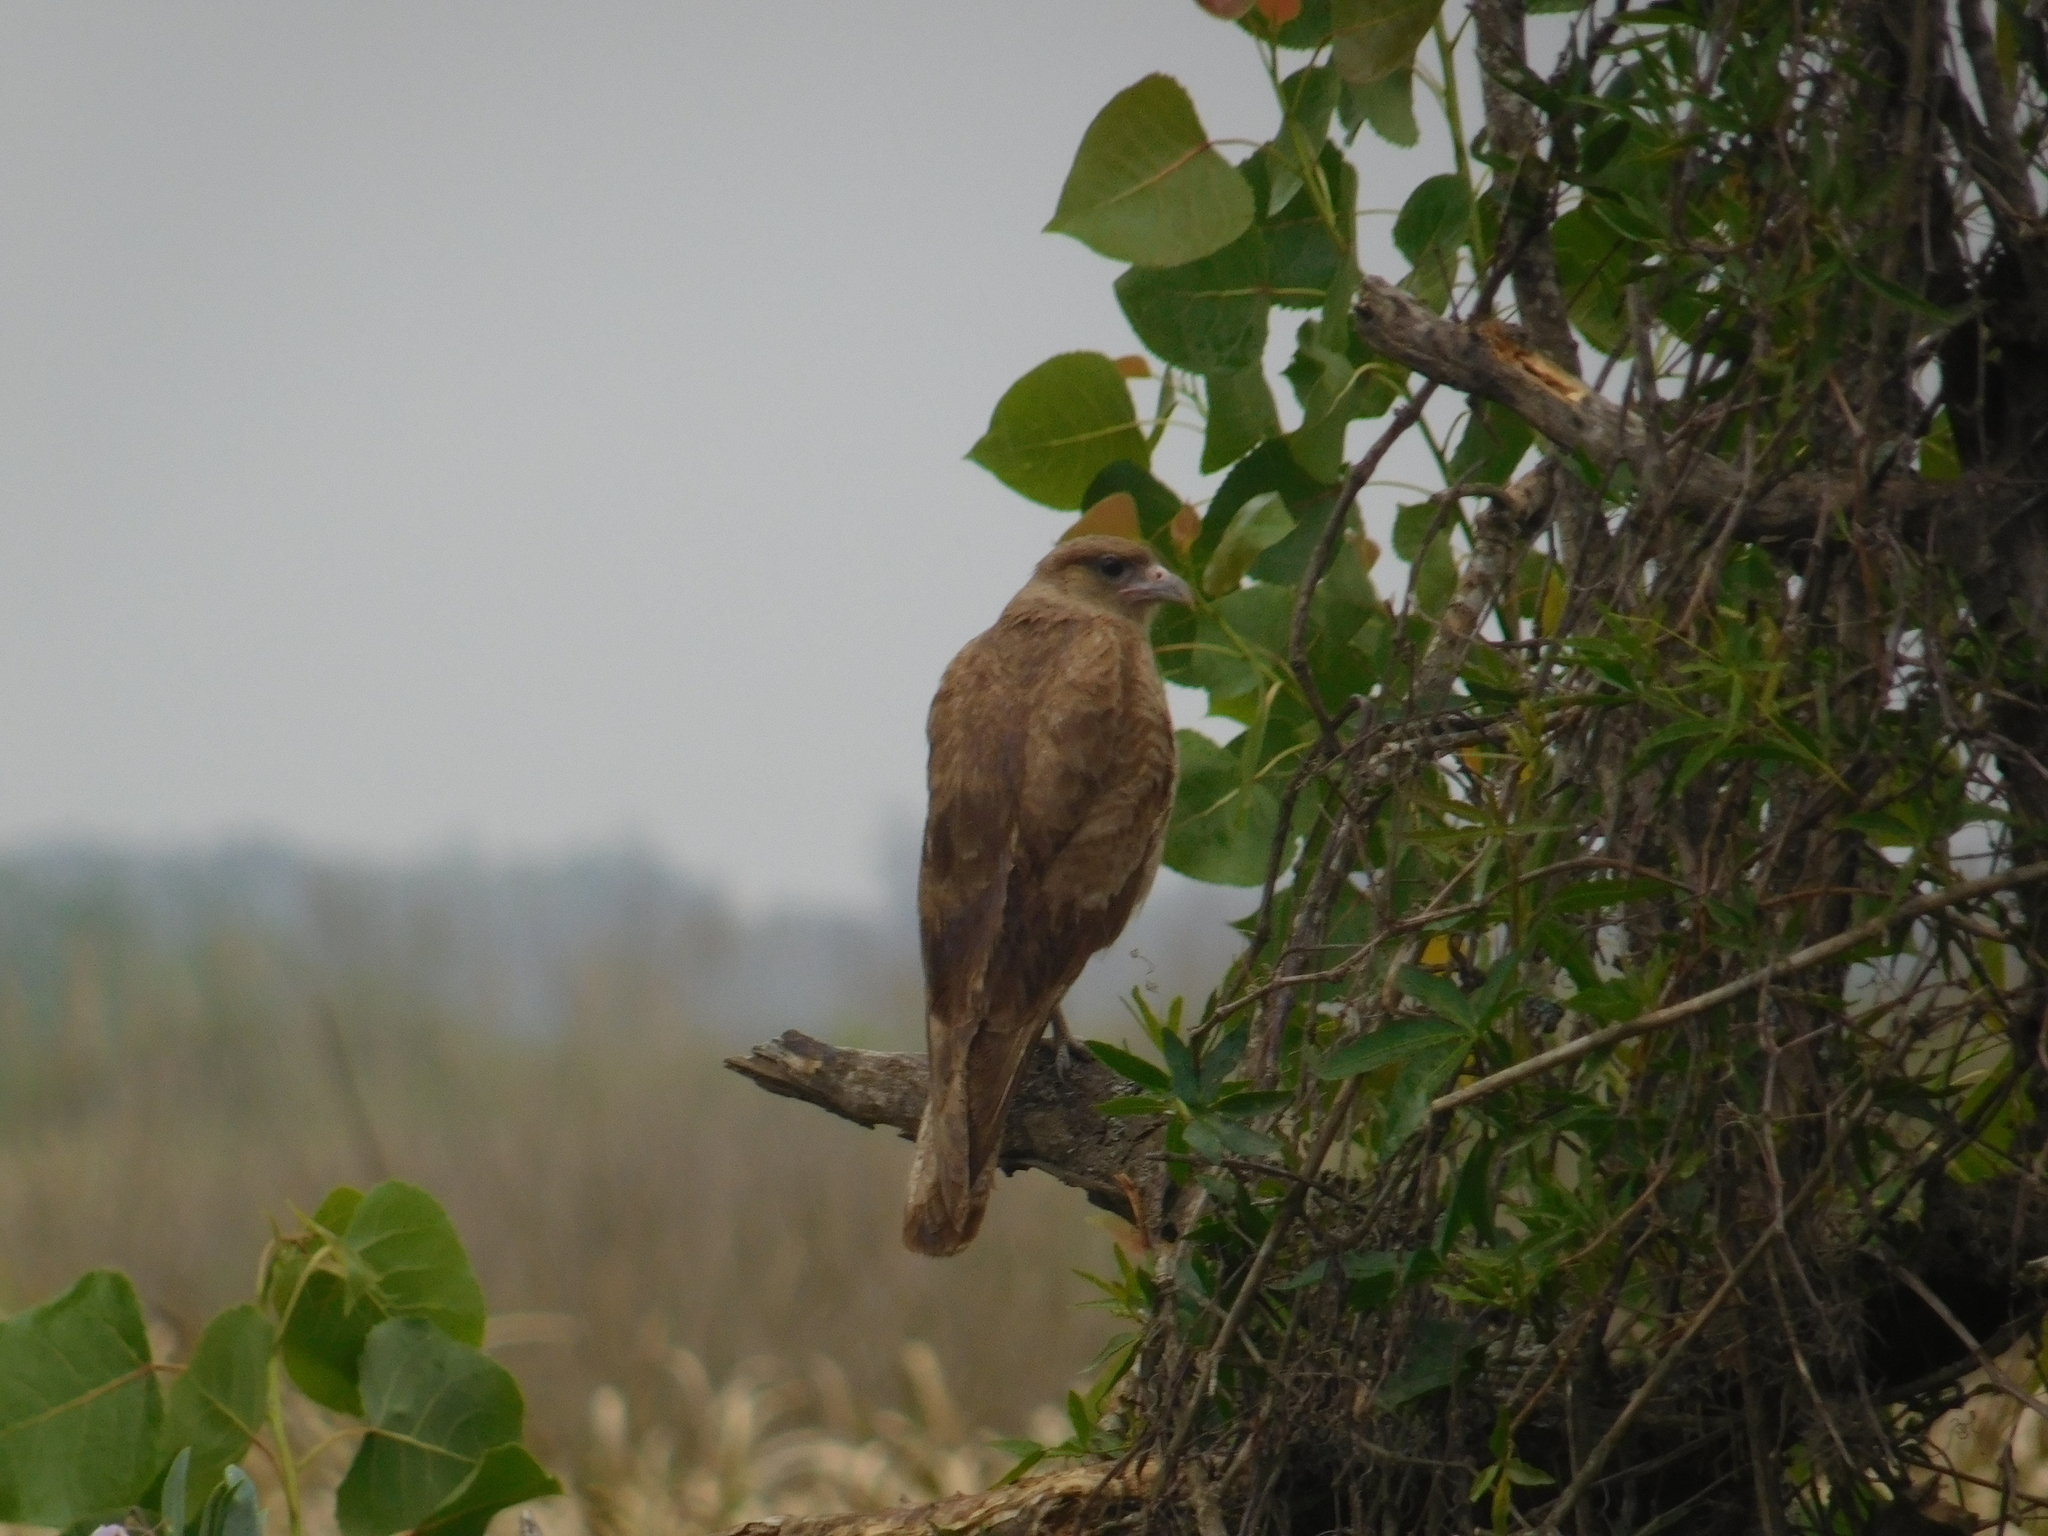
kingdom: Animalia
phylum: Chordata
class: Aves
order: Falconiformes
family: Falconidae
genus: Daptrius
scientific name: Daptrius
